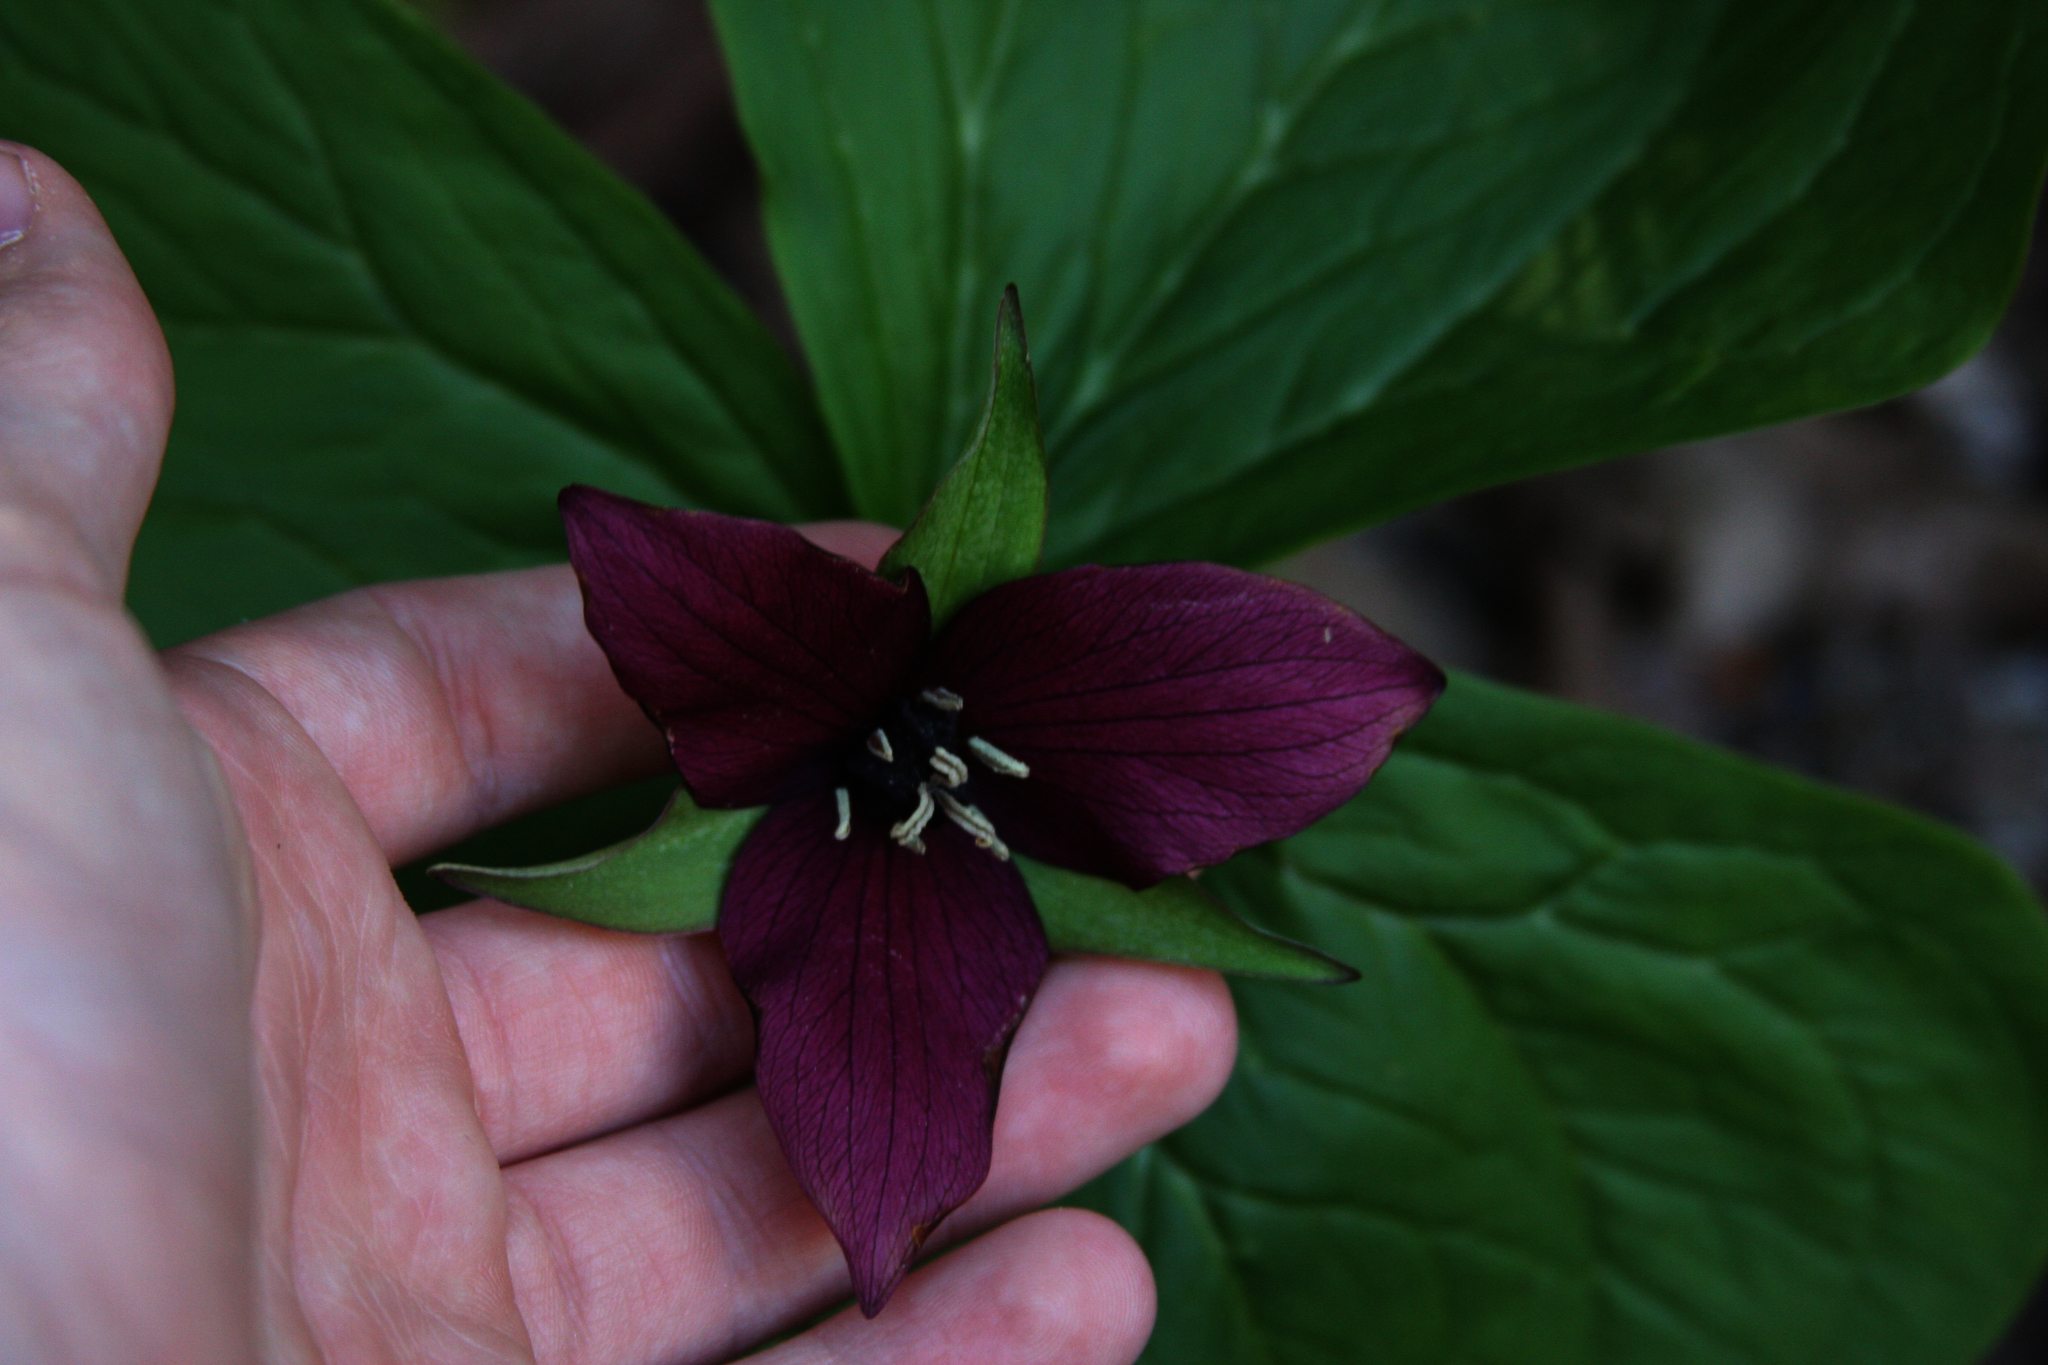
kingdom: Plantae
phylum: Tracheophyta
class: Liliopsida
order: Liliales
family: Melanthiaceae
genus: Trillium
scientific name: Trillium erectum
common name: Purple trillium
